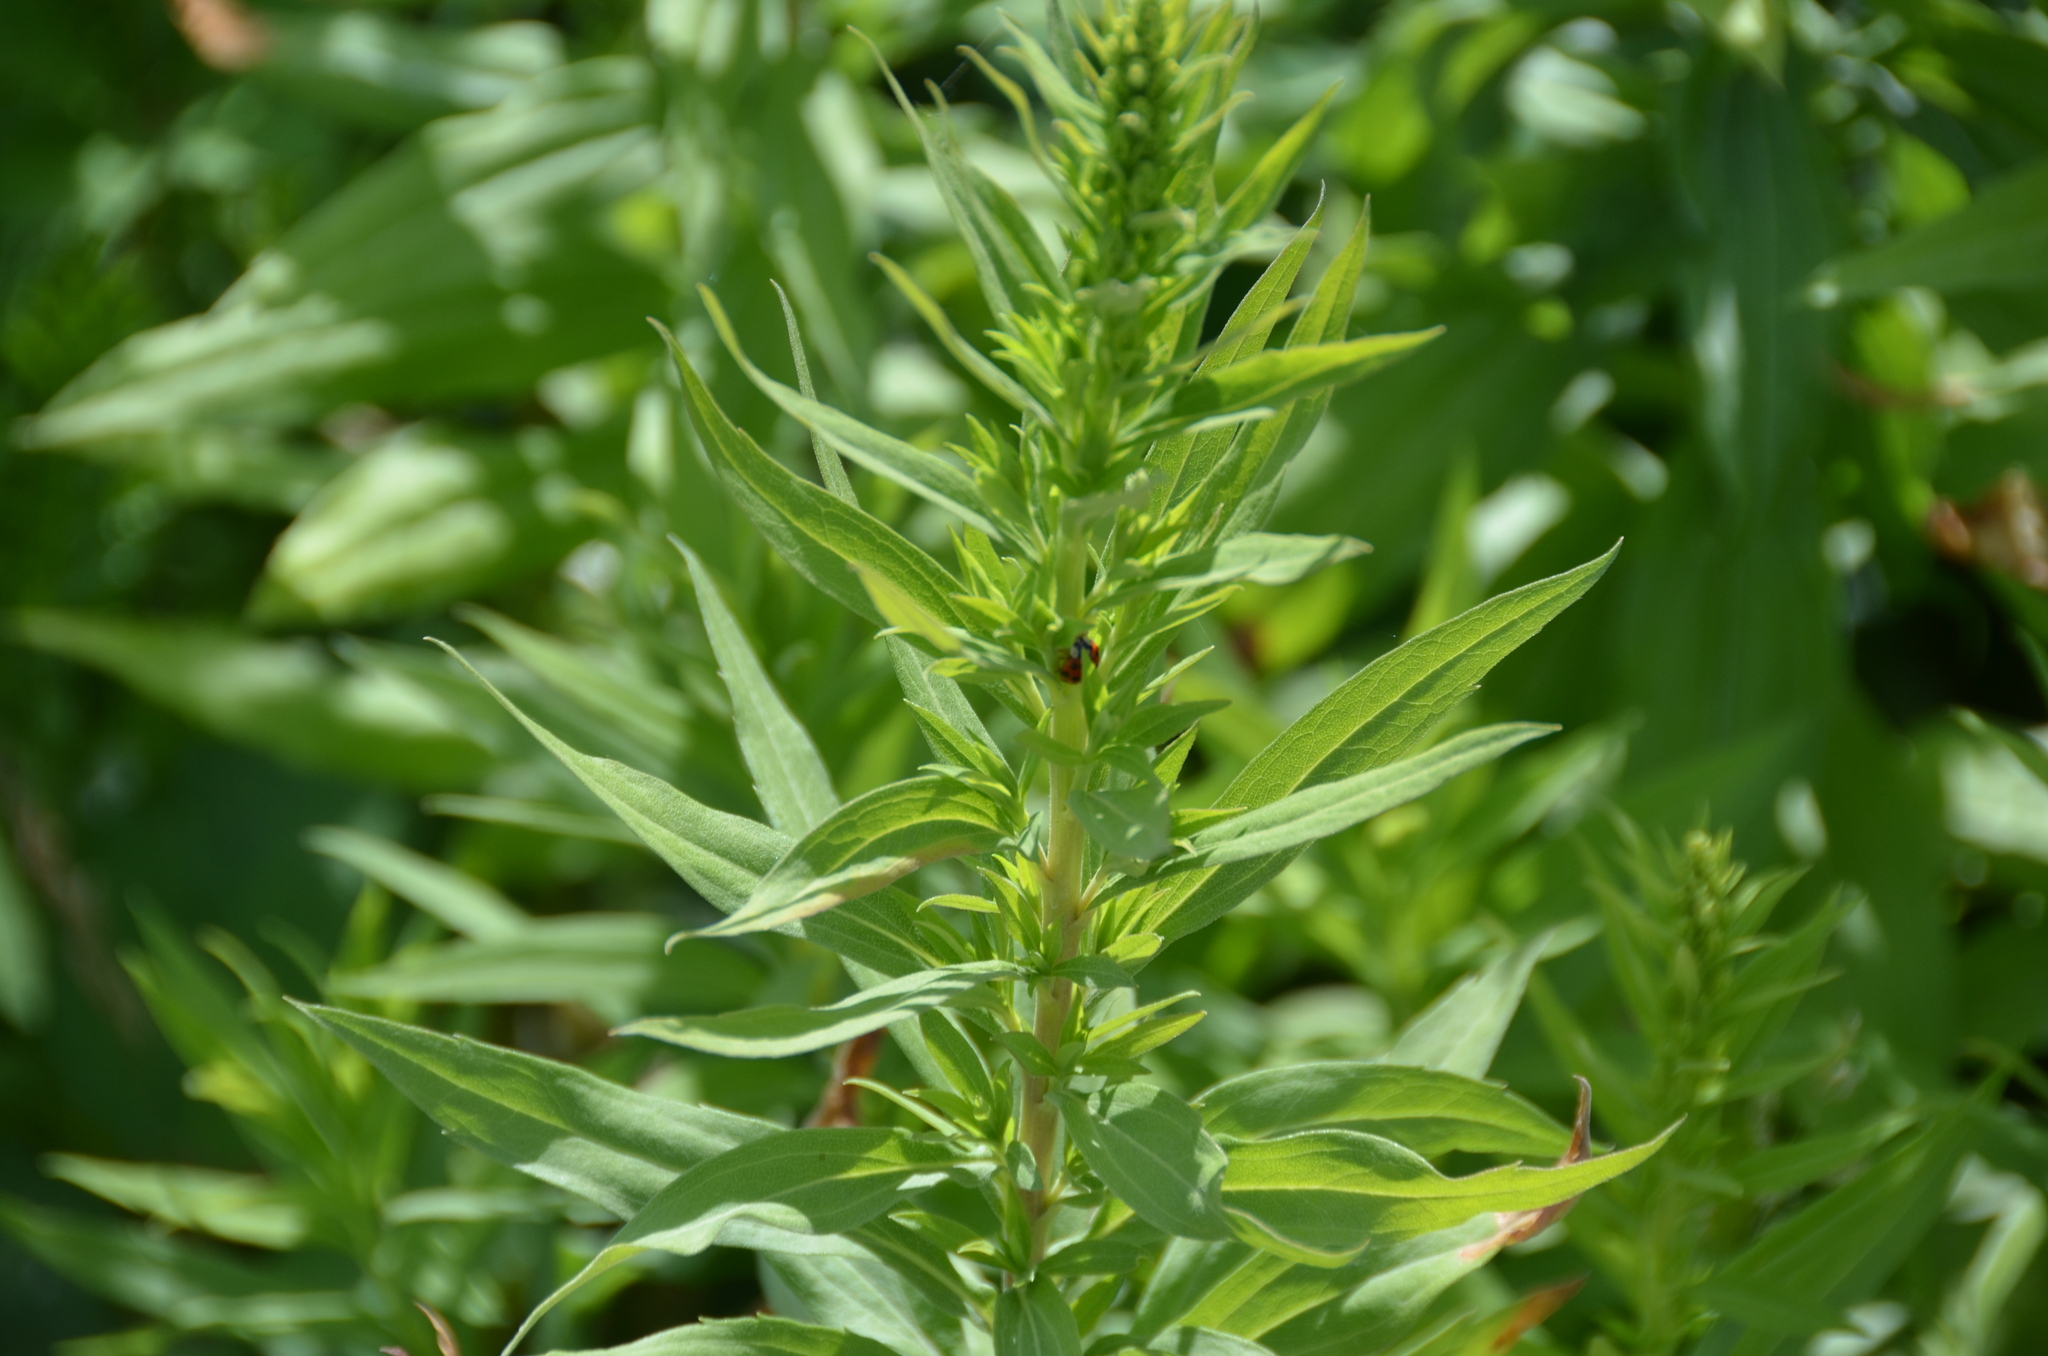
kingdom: Animalia
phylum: Arthropoda
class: Insecta
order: Coleoptera
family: Coccinellidae
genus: Harmonia
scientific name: Harmonia axyridis
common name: Harlequin ladybird
